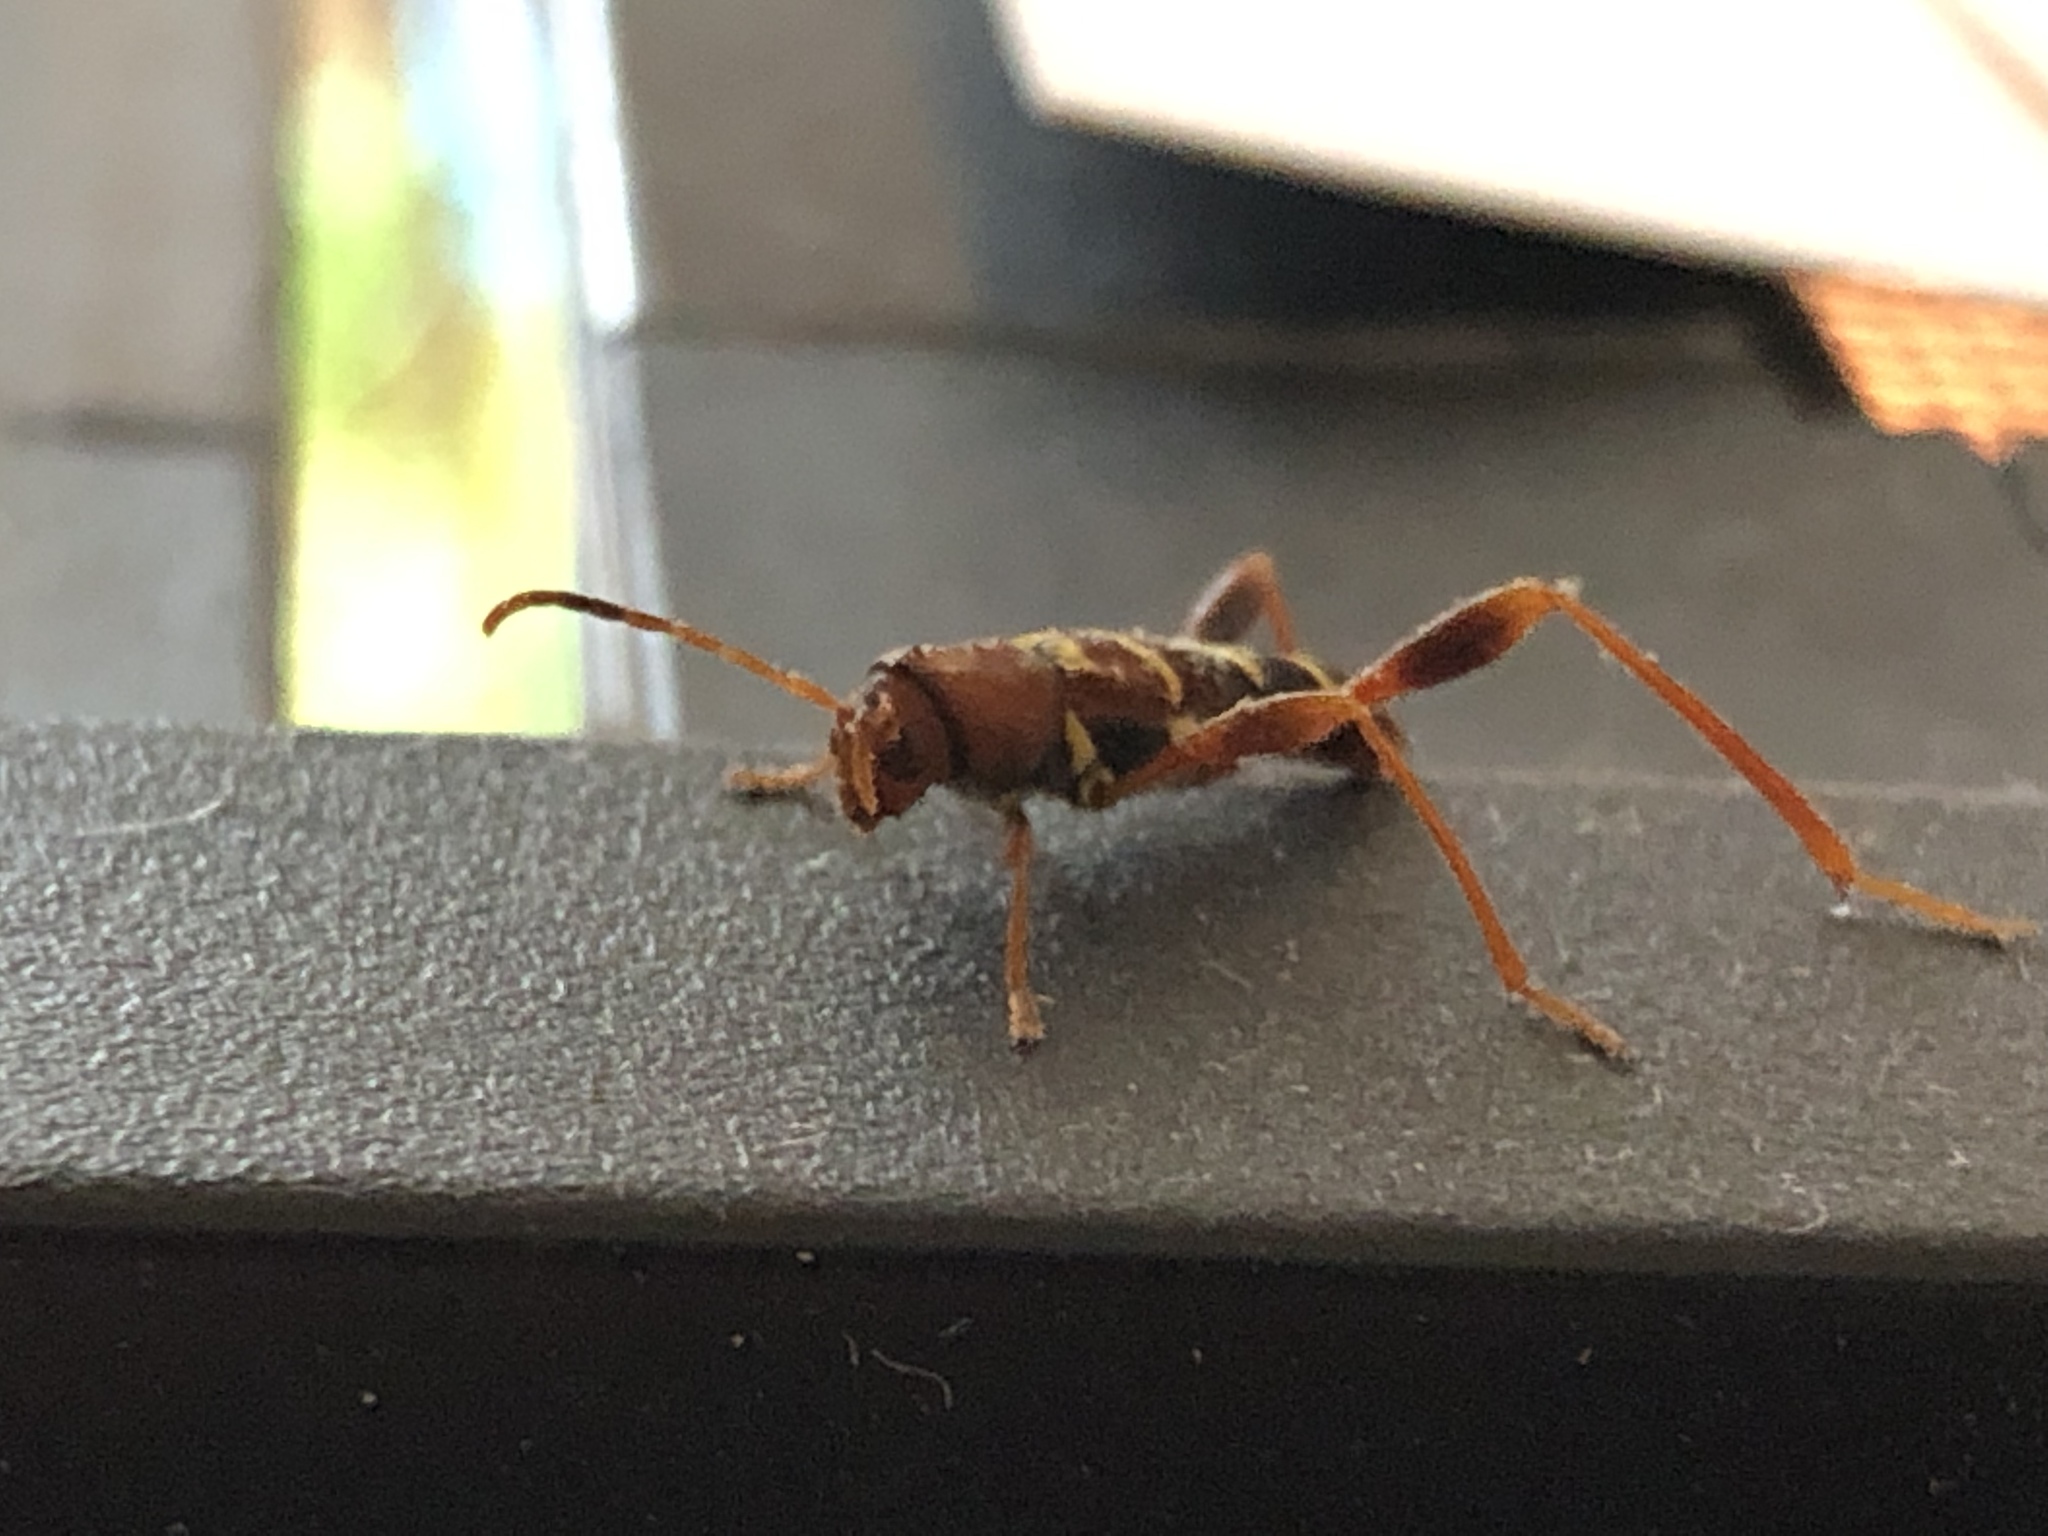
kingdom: Animalia
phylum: Arthropoda
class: Insecta
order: Coleoptera
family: Cerambycidae
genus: Neoclytus
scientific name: Neoclytus acuminatus
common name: Read-headed ash borer
